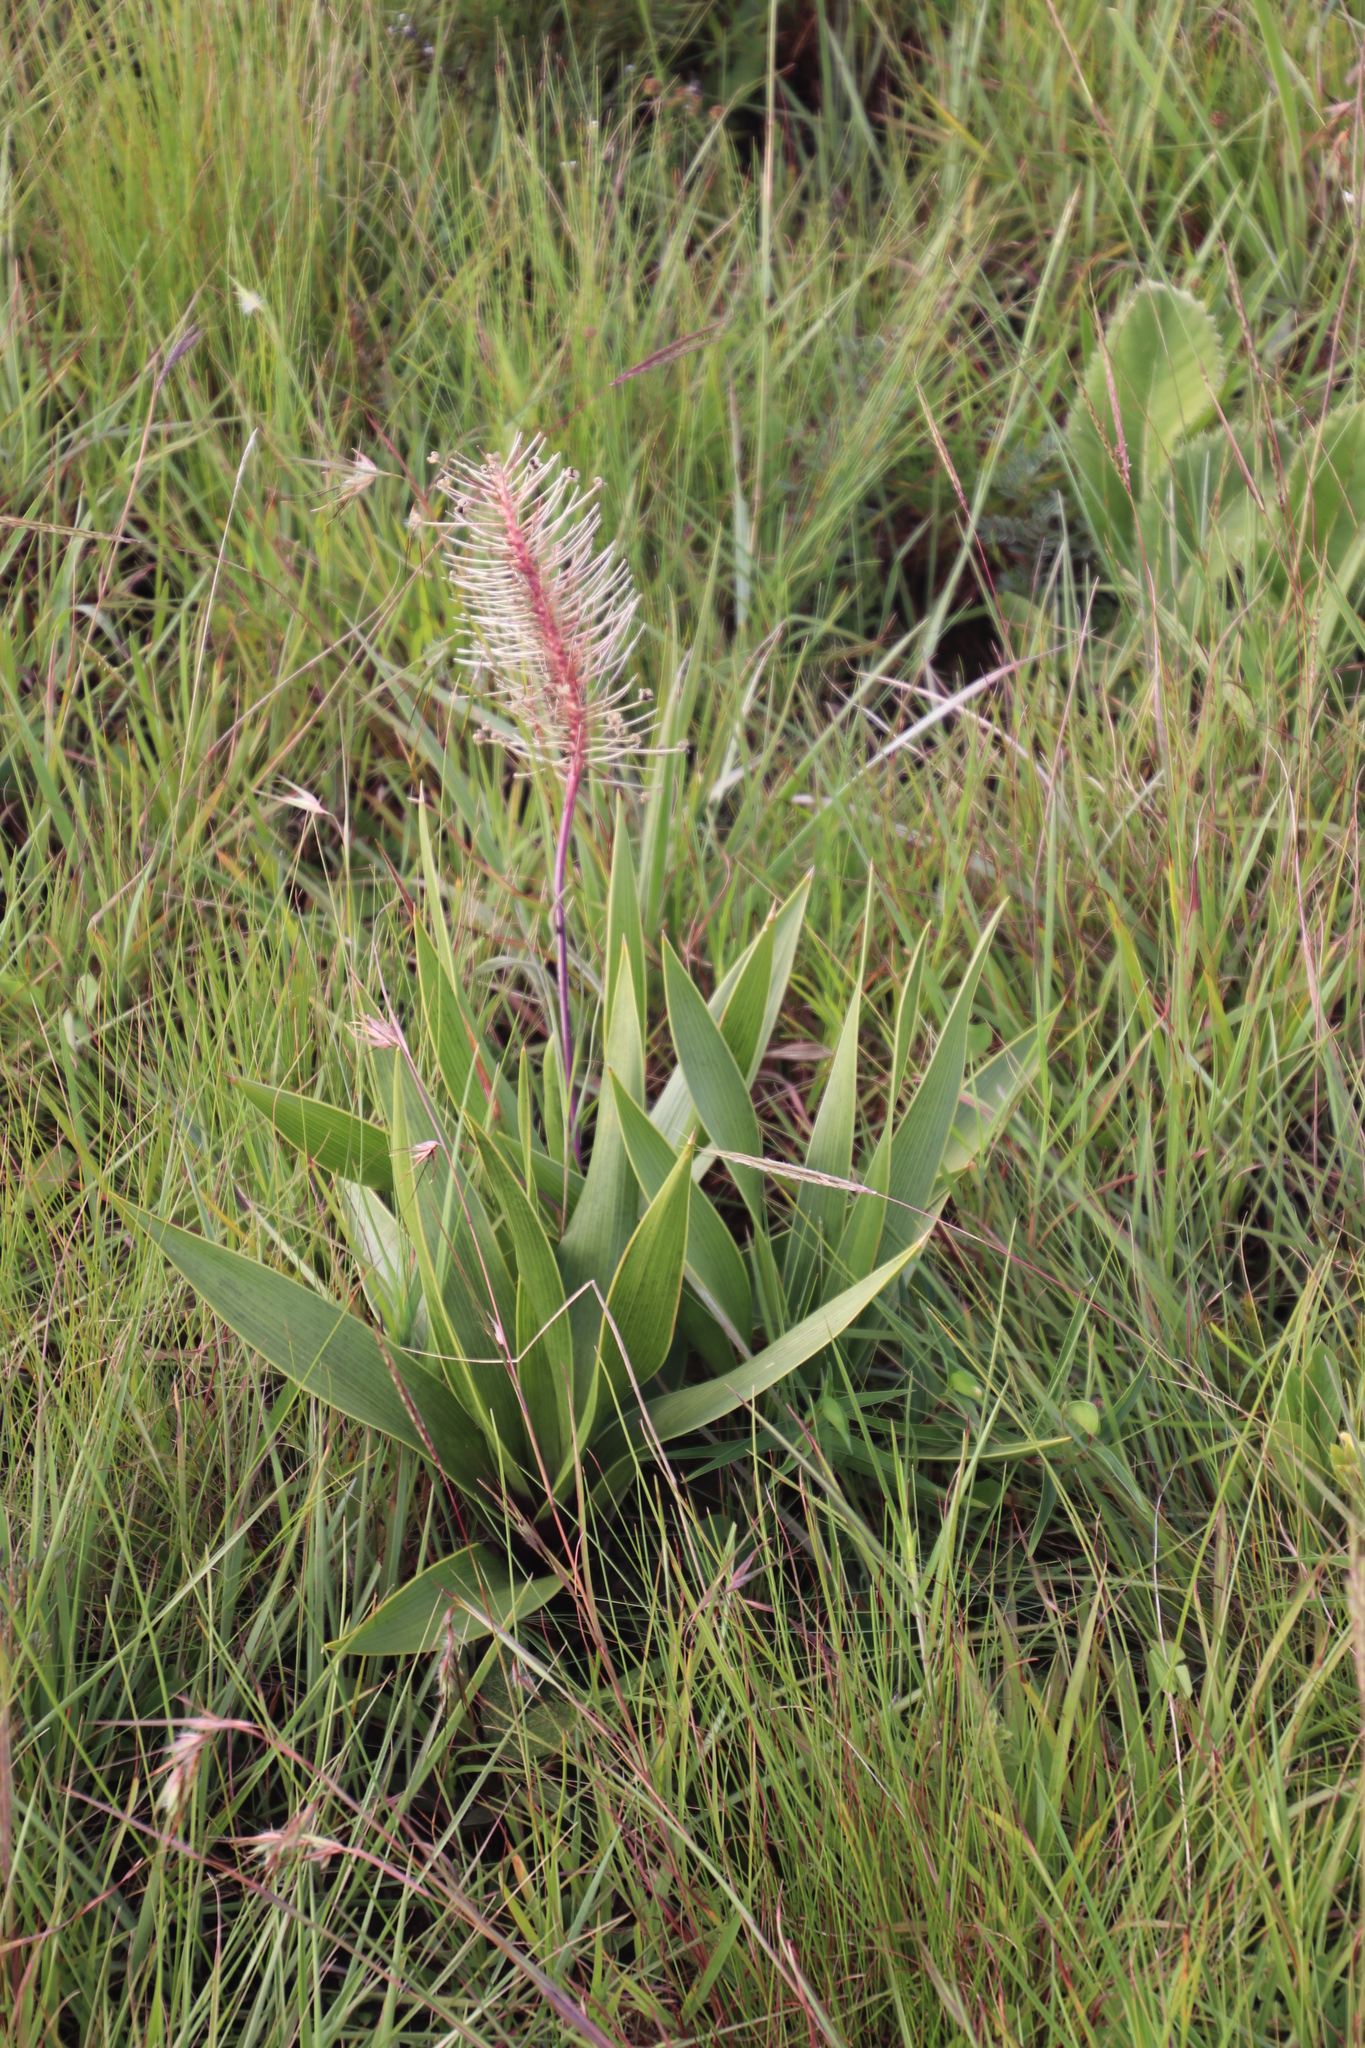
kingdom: Plantae
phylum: Tracheophyta
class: Liliopsida
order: Asparagales
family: Asparagaceae
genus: Schizocarphus
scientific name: Schizocarphus nervosus
